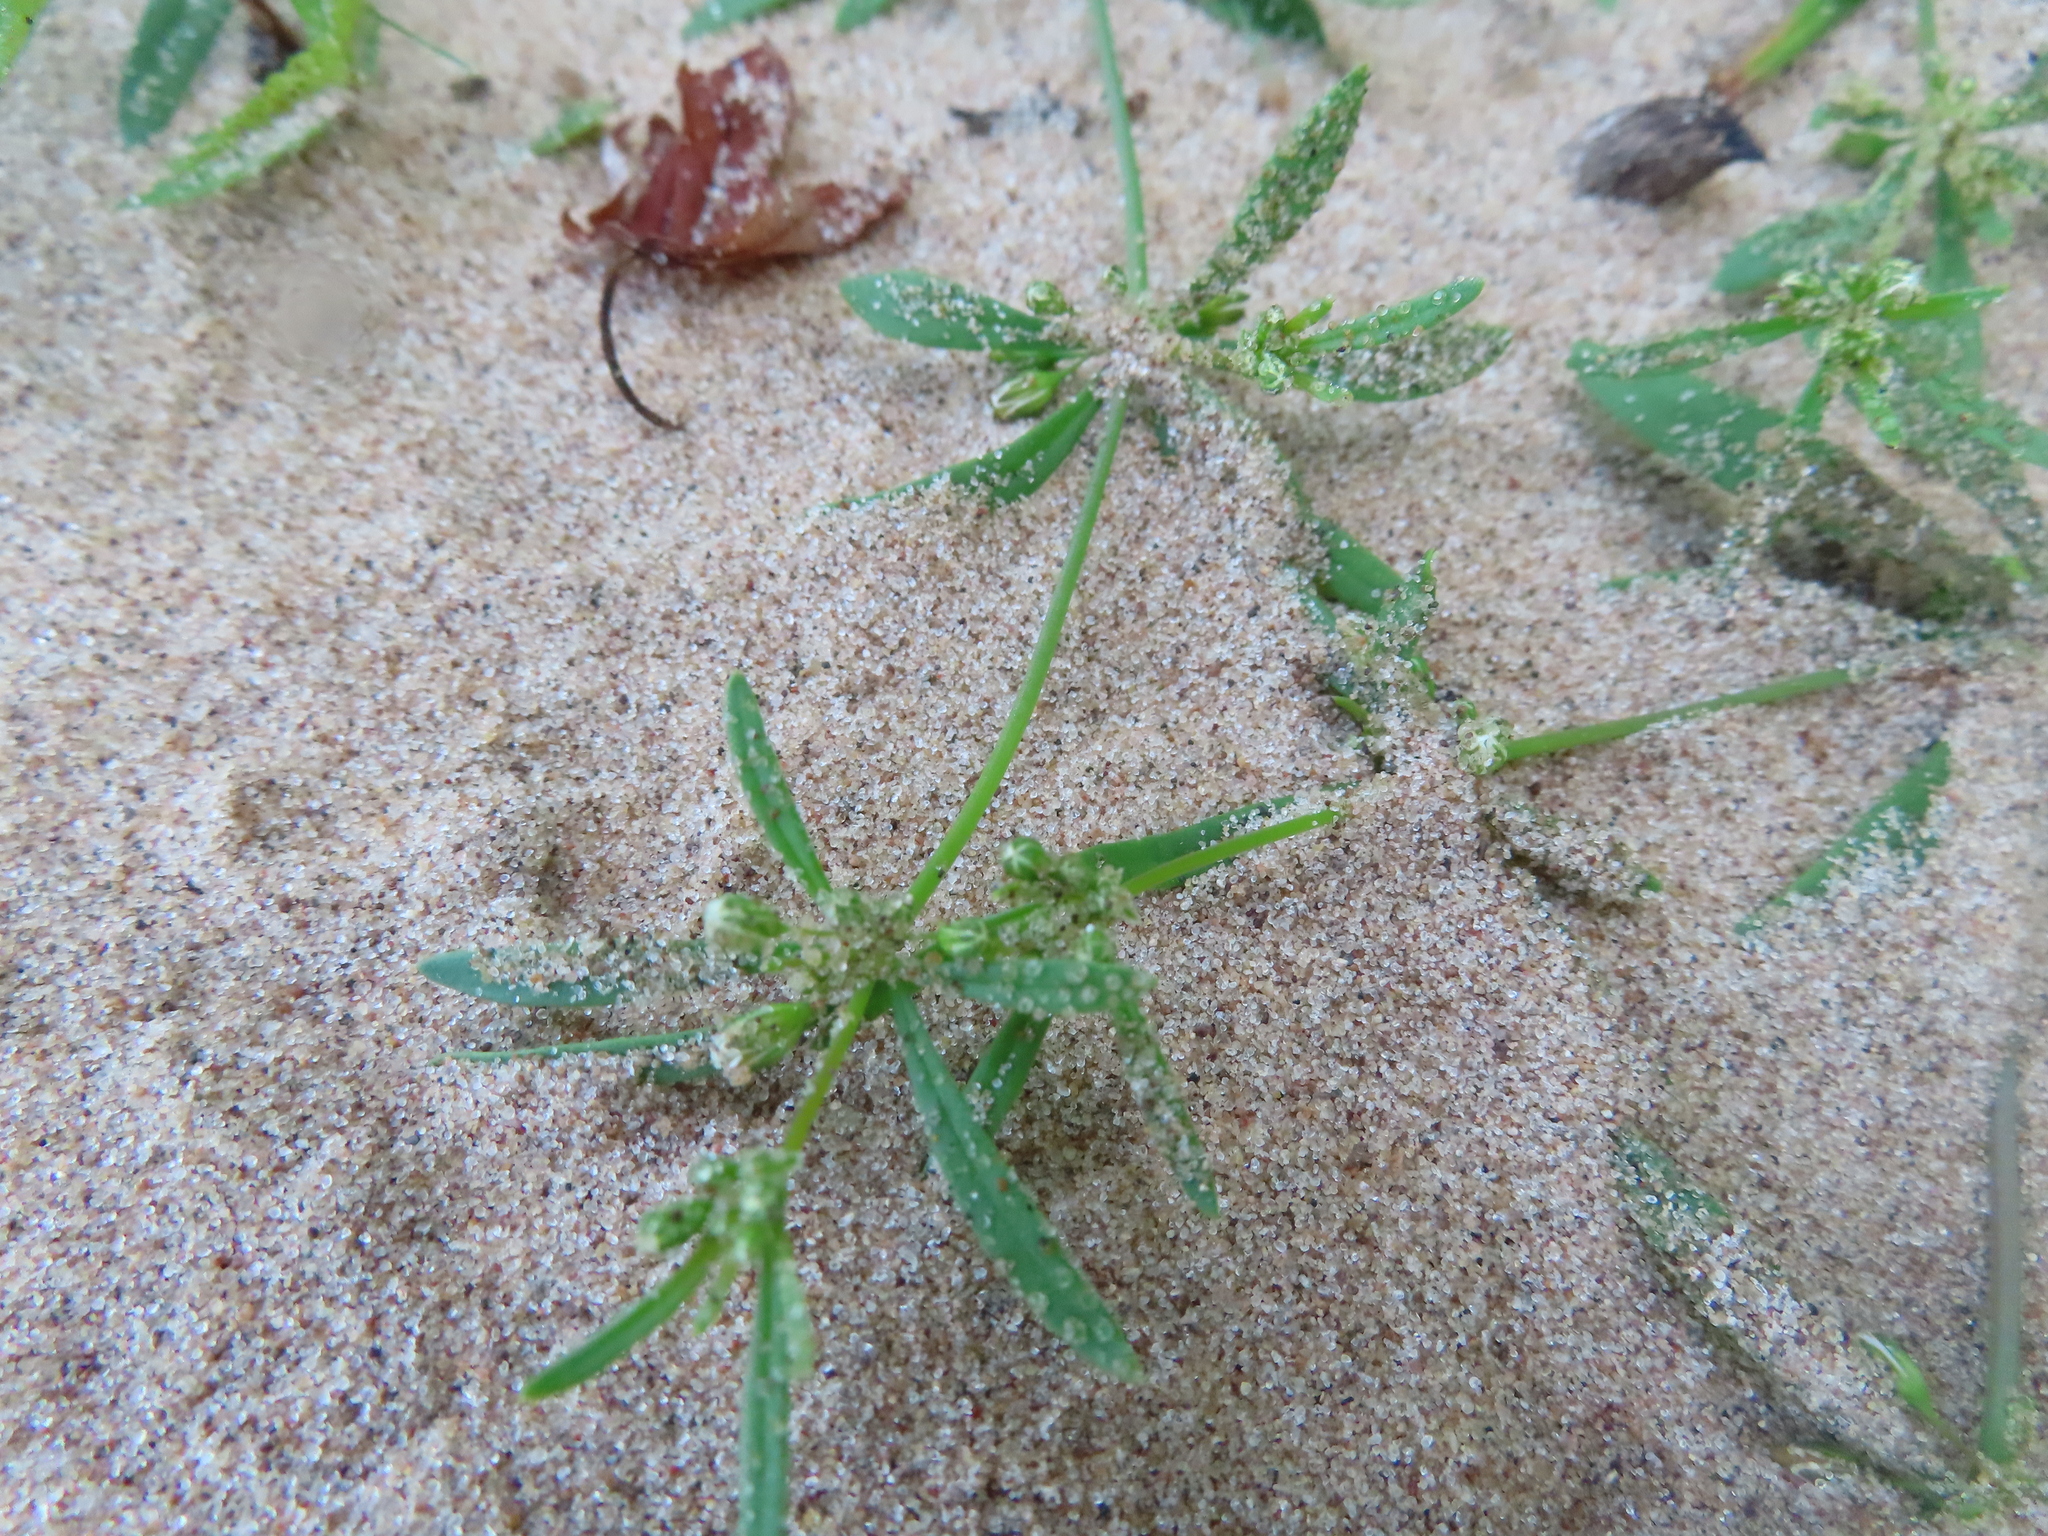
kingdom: Plantae
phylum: Tracheophyta
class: Magnoliopsida
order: Caryophyllales
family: Molluginaceae
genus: Mollugo
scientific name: Mollugo verticillata
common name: Green carpetweed
